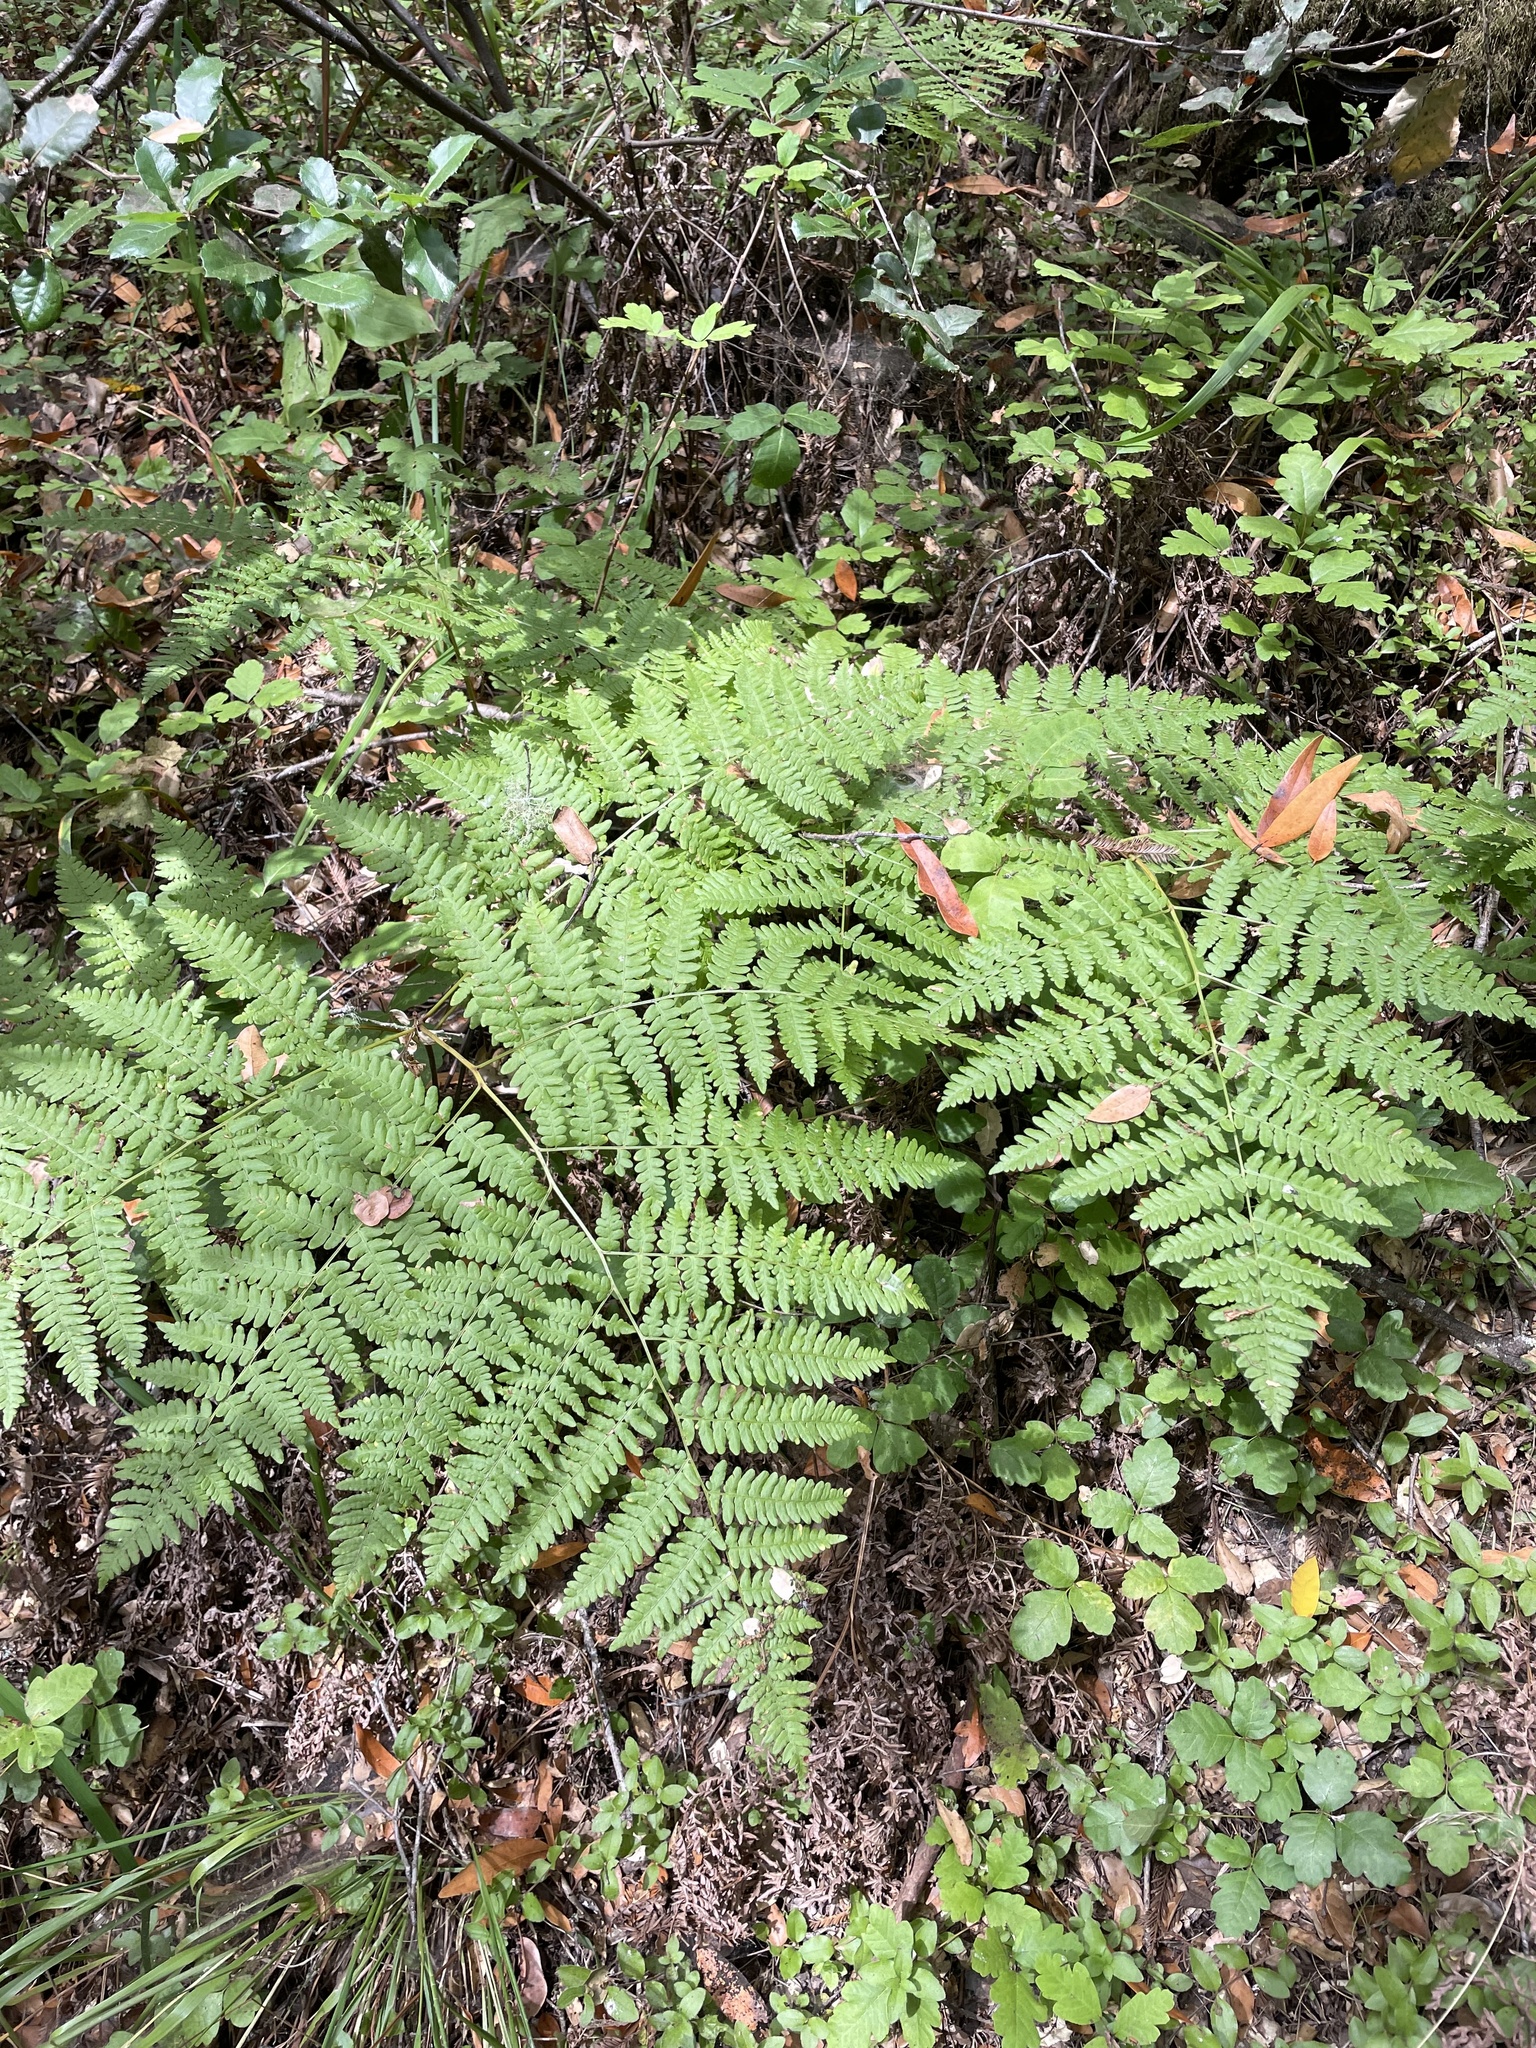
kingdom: Plantae
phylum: Tracheophyta
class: Polypodiopsida
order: Polypodiales
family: Dennstaedtiaceae
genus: Pteridium
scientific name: Pteridium aquilinum
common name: Bracken
